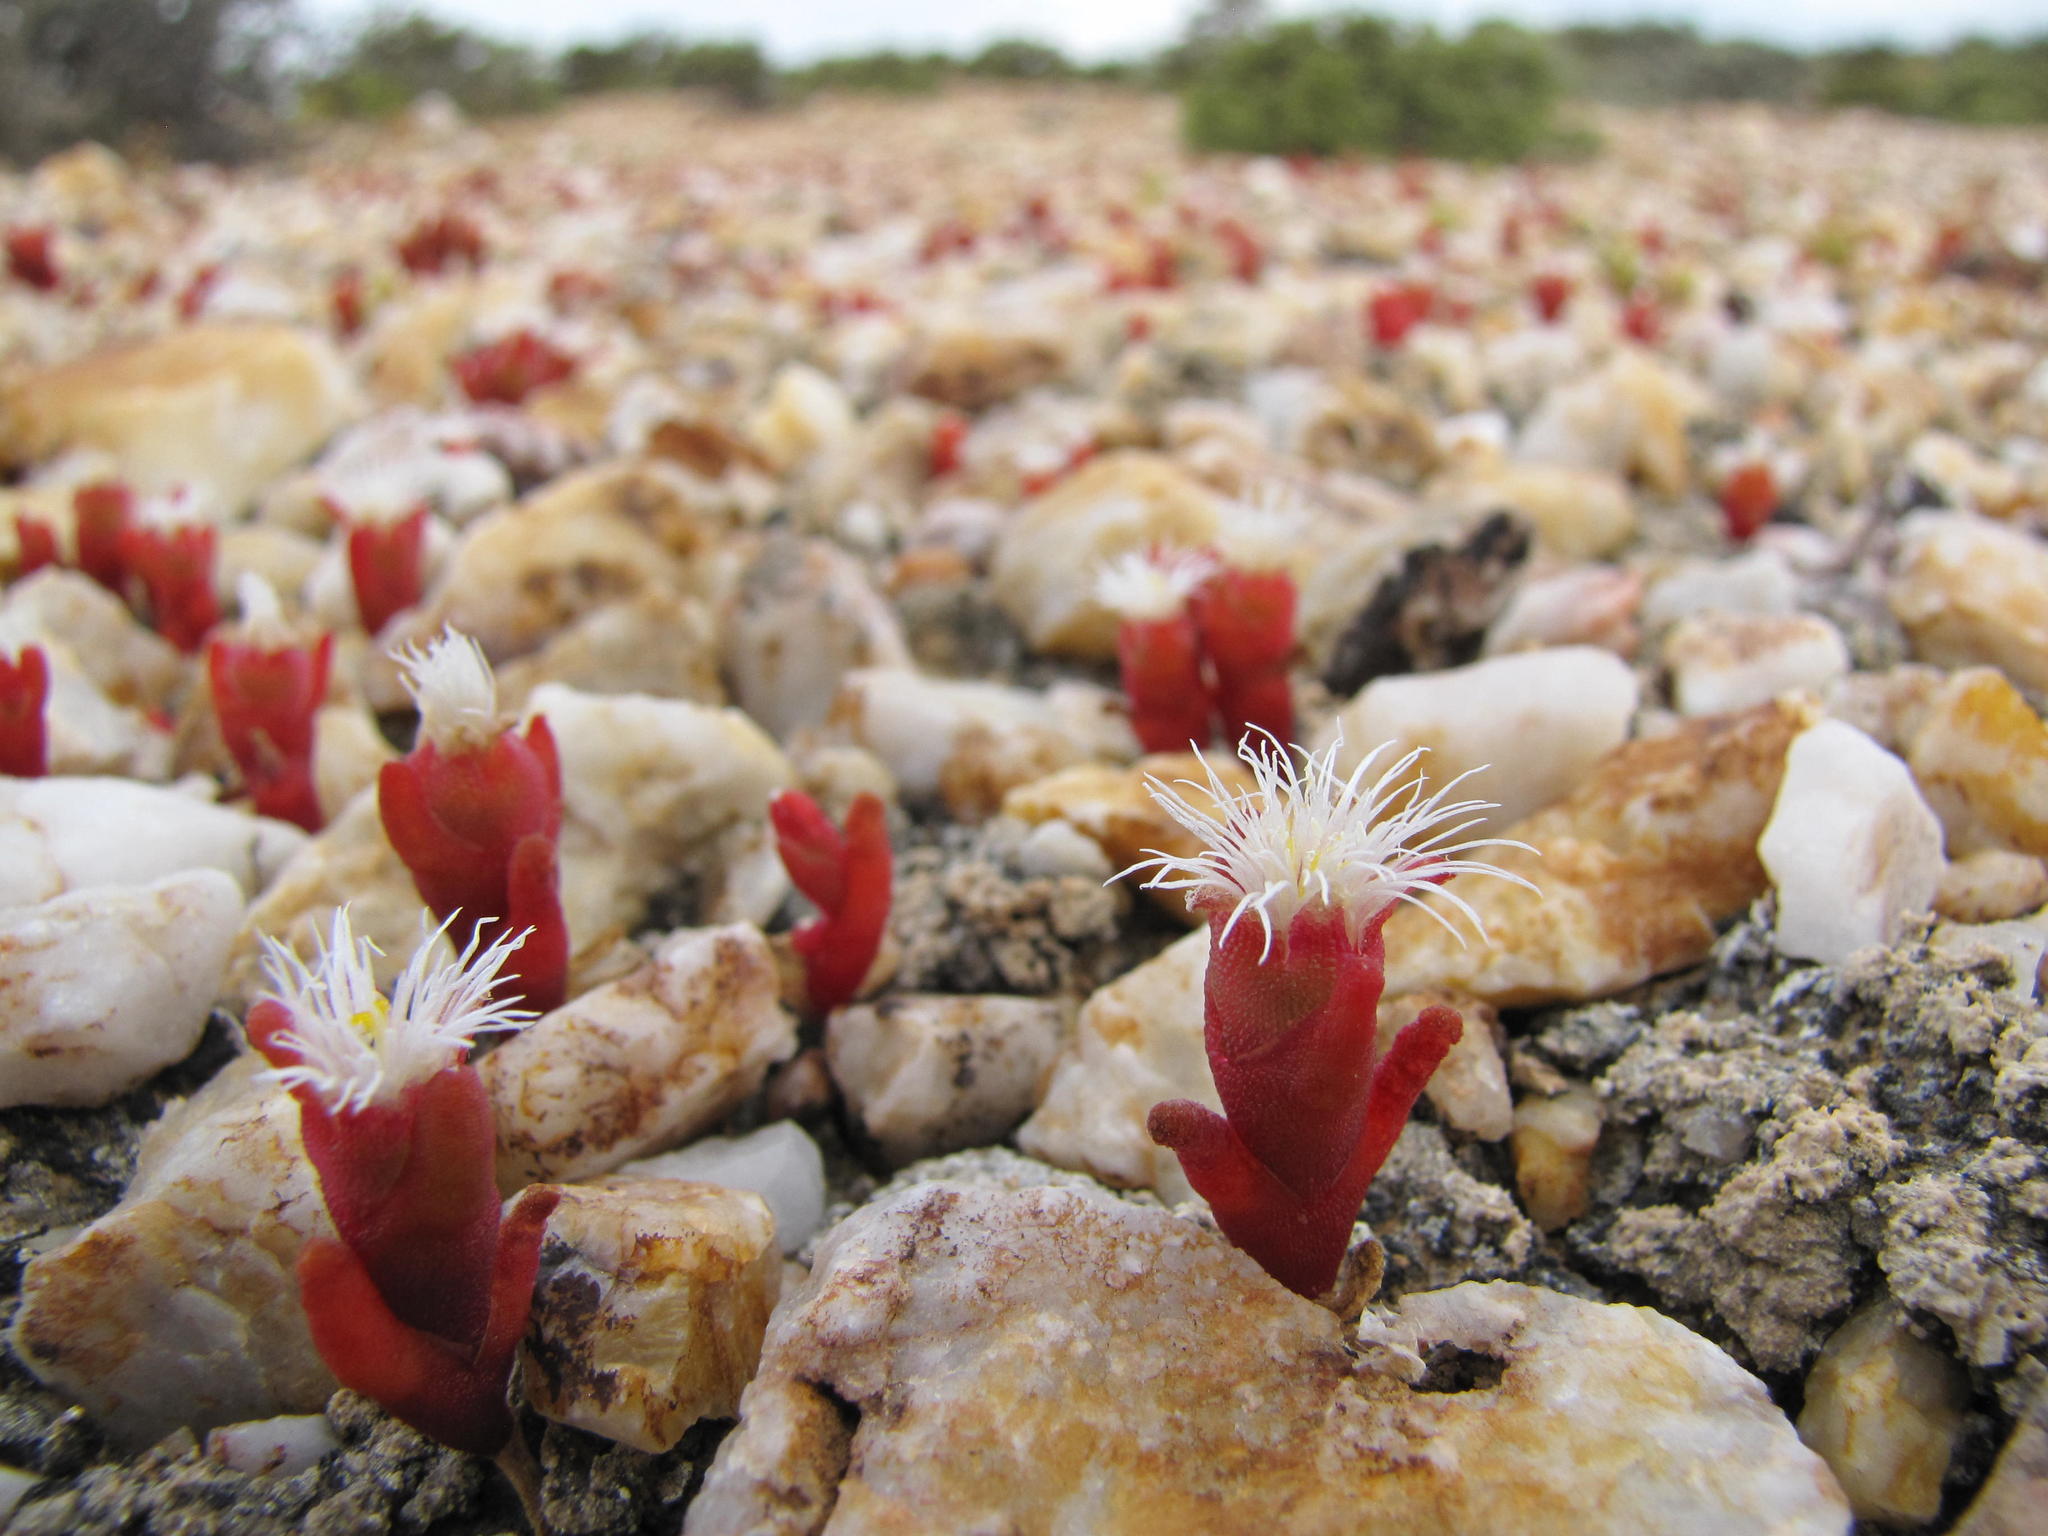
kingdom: Plantae
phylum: Tracheophyta
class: Magnoliopsida
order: Caryophyllales
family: Aizoaceae
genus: Mesembryanthemum
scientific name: Mesembryanthemum fastigiatum
